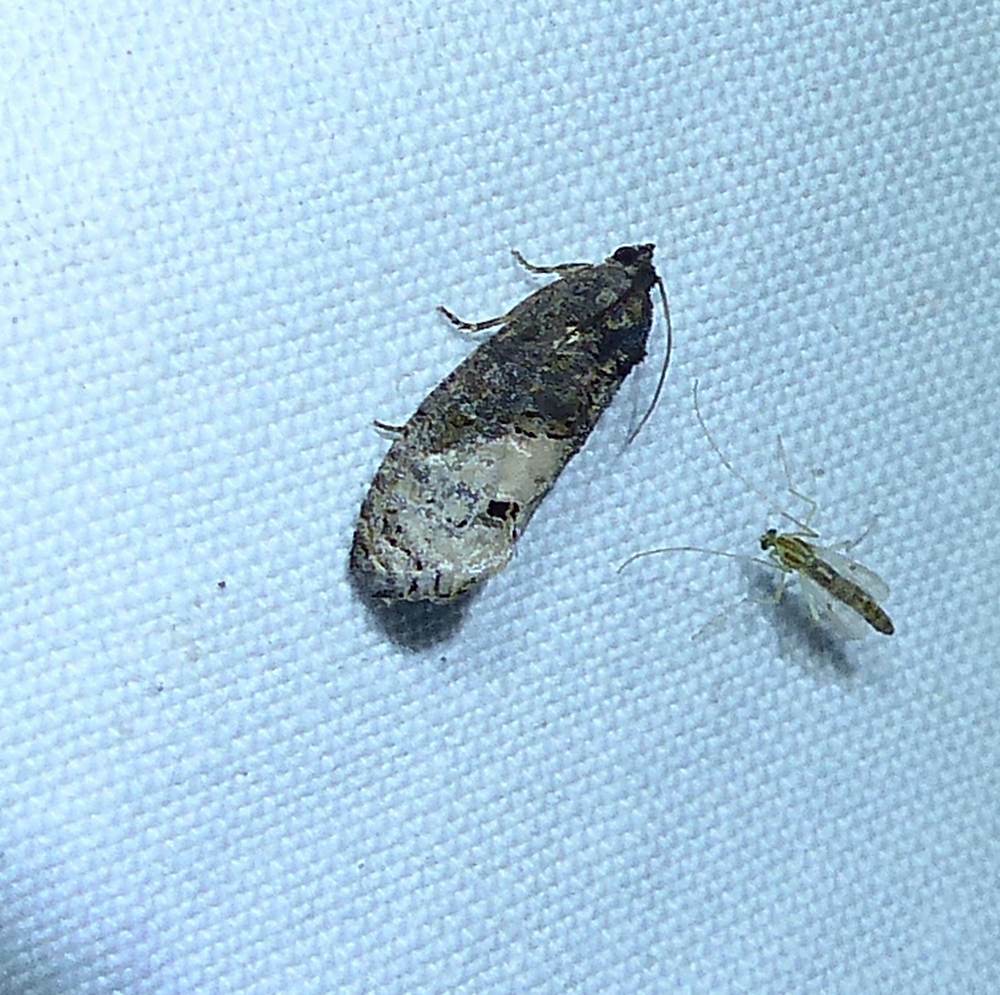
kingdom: Animalia
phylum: Arthropoda
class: Insecta
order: Lepidoptera
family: Tortricidae
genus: Ecdytolopha
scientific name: Ecdytolopha insiticiana
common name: Locust twig borer moth
